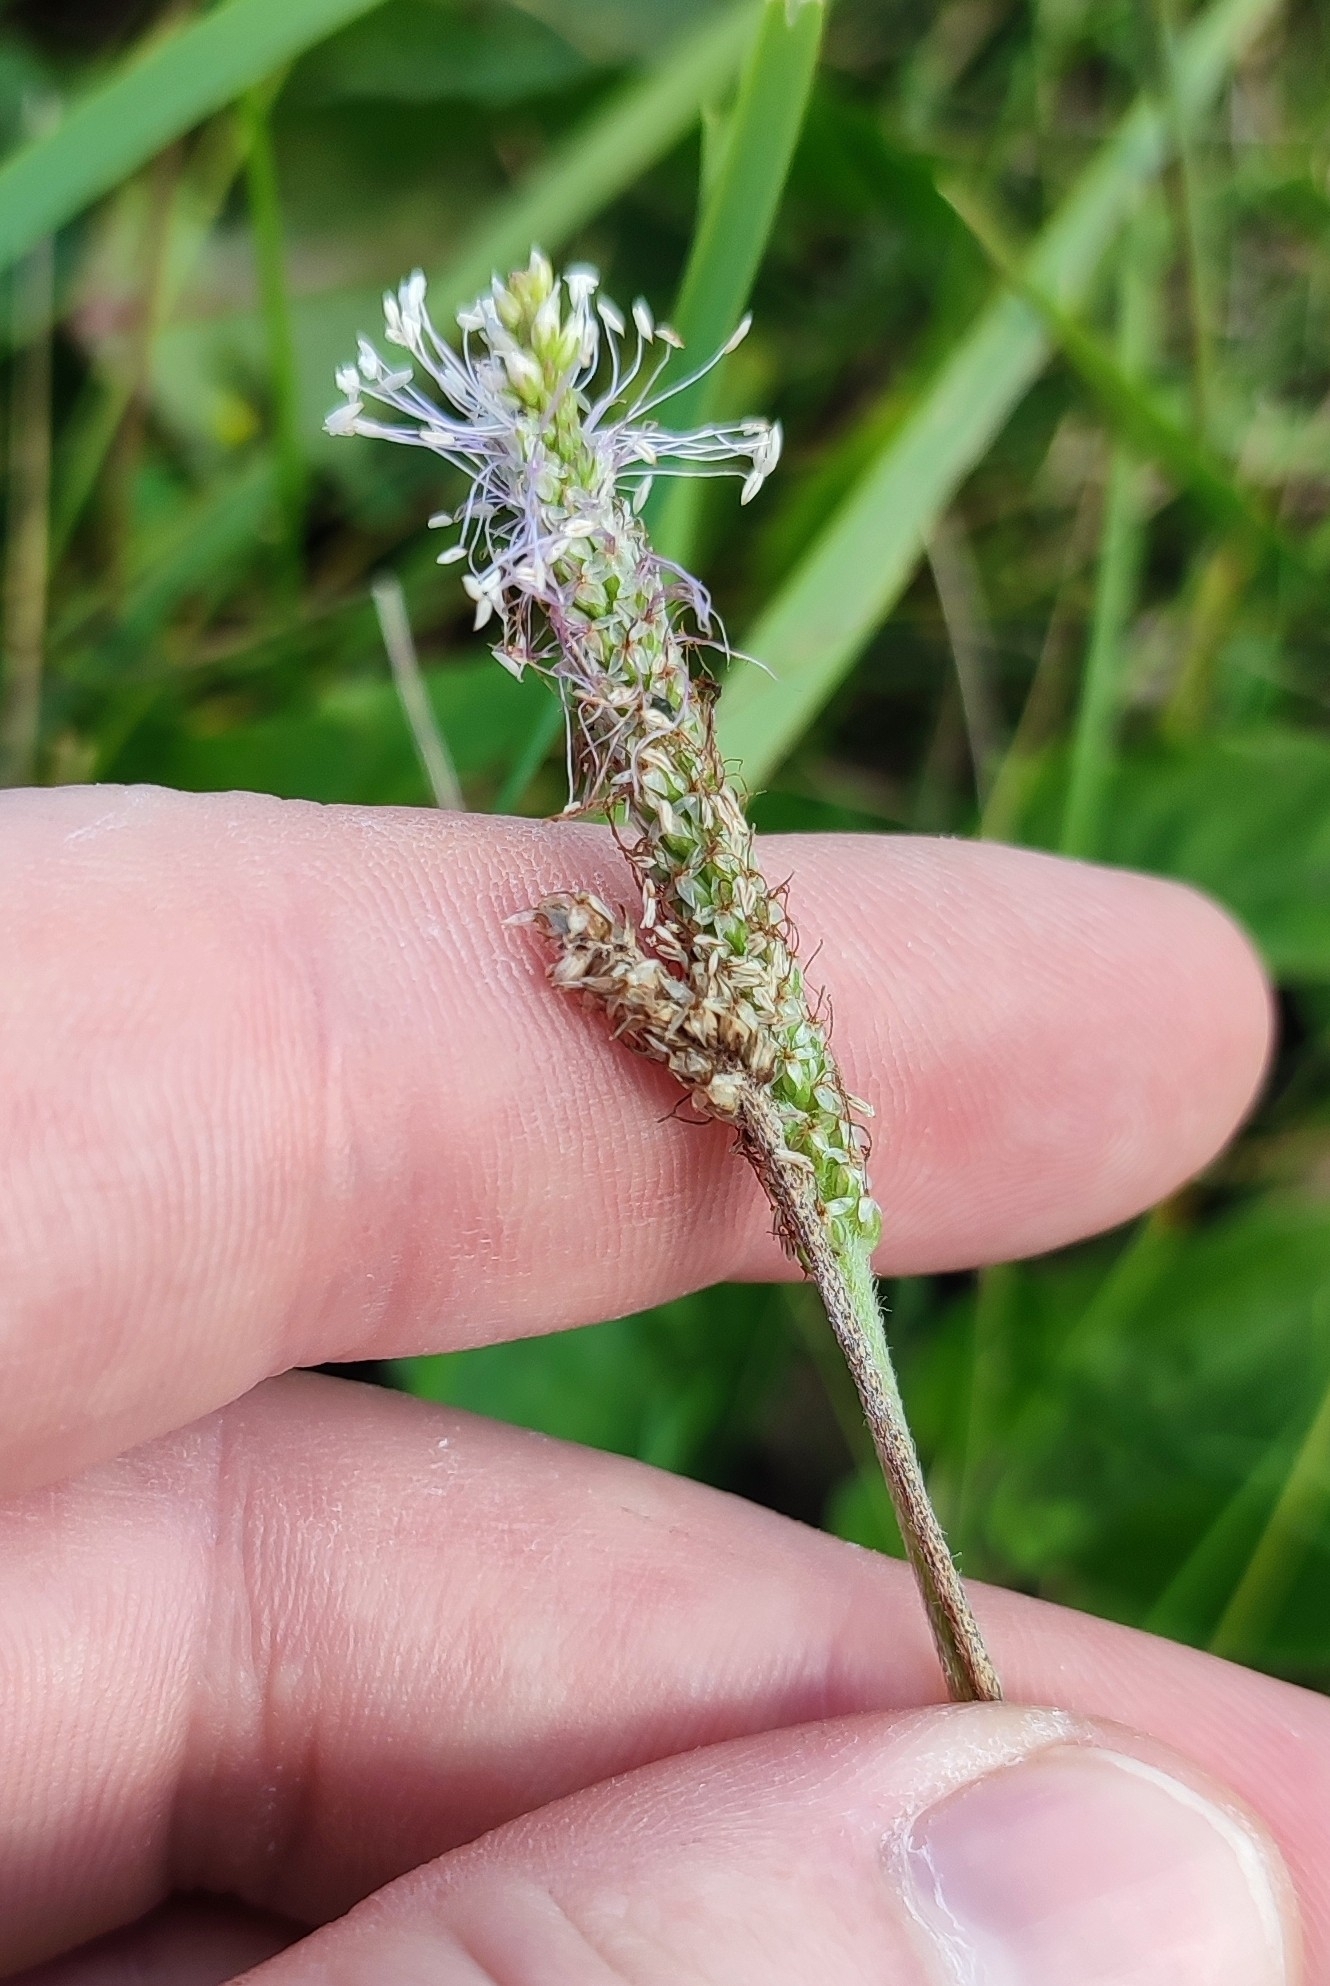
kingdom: Plantae
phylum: Tracheophyta
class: Magnoliopsida
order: Lamiales
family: Plantaginaceae
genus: Plantago
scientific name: Plantago media
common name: Hoary plantain
